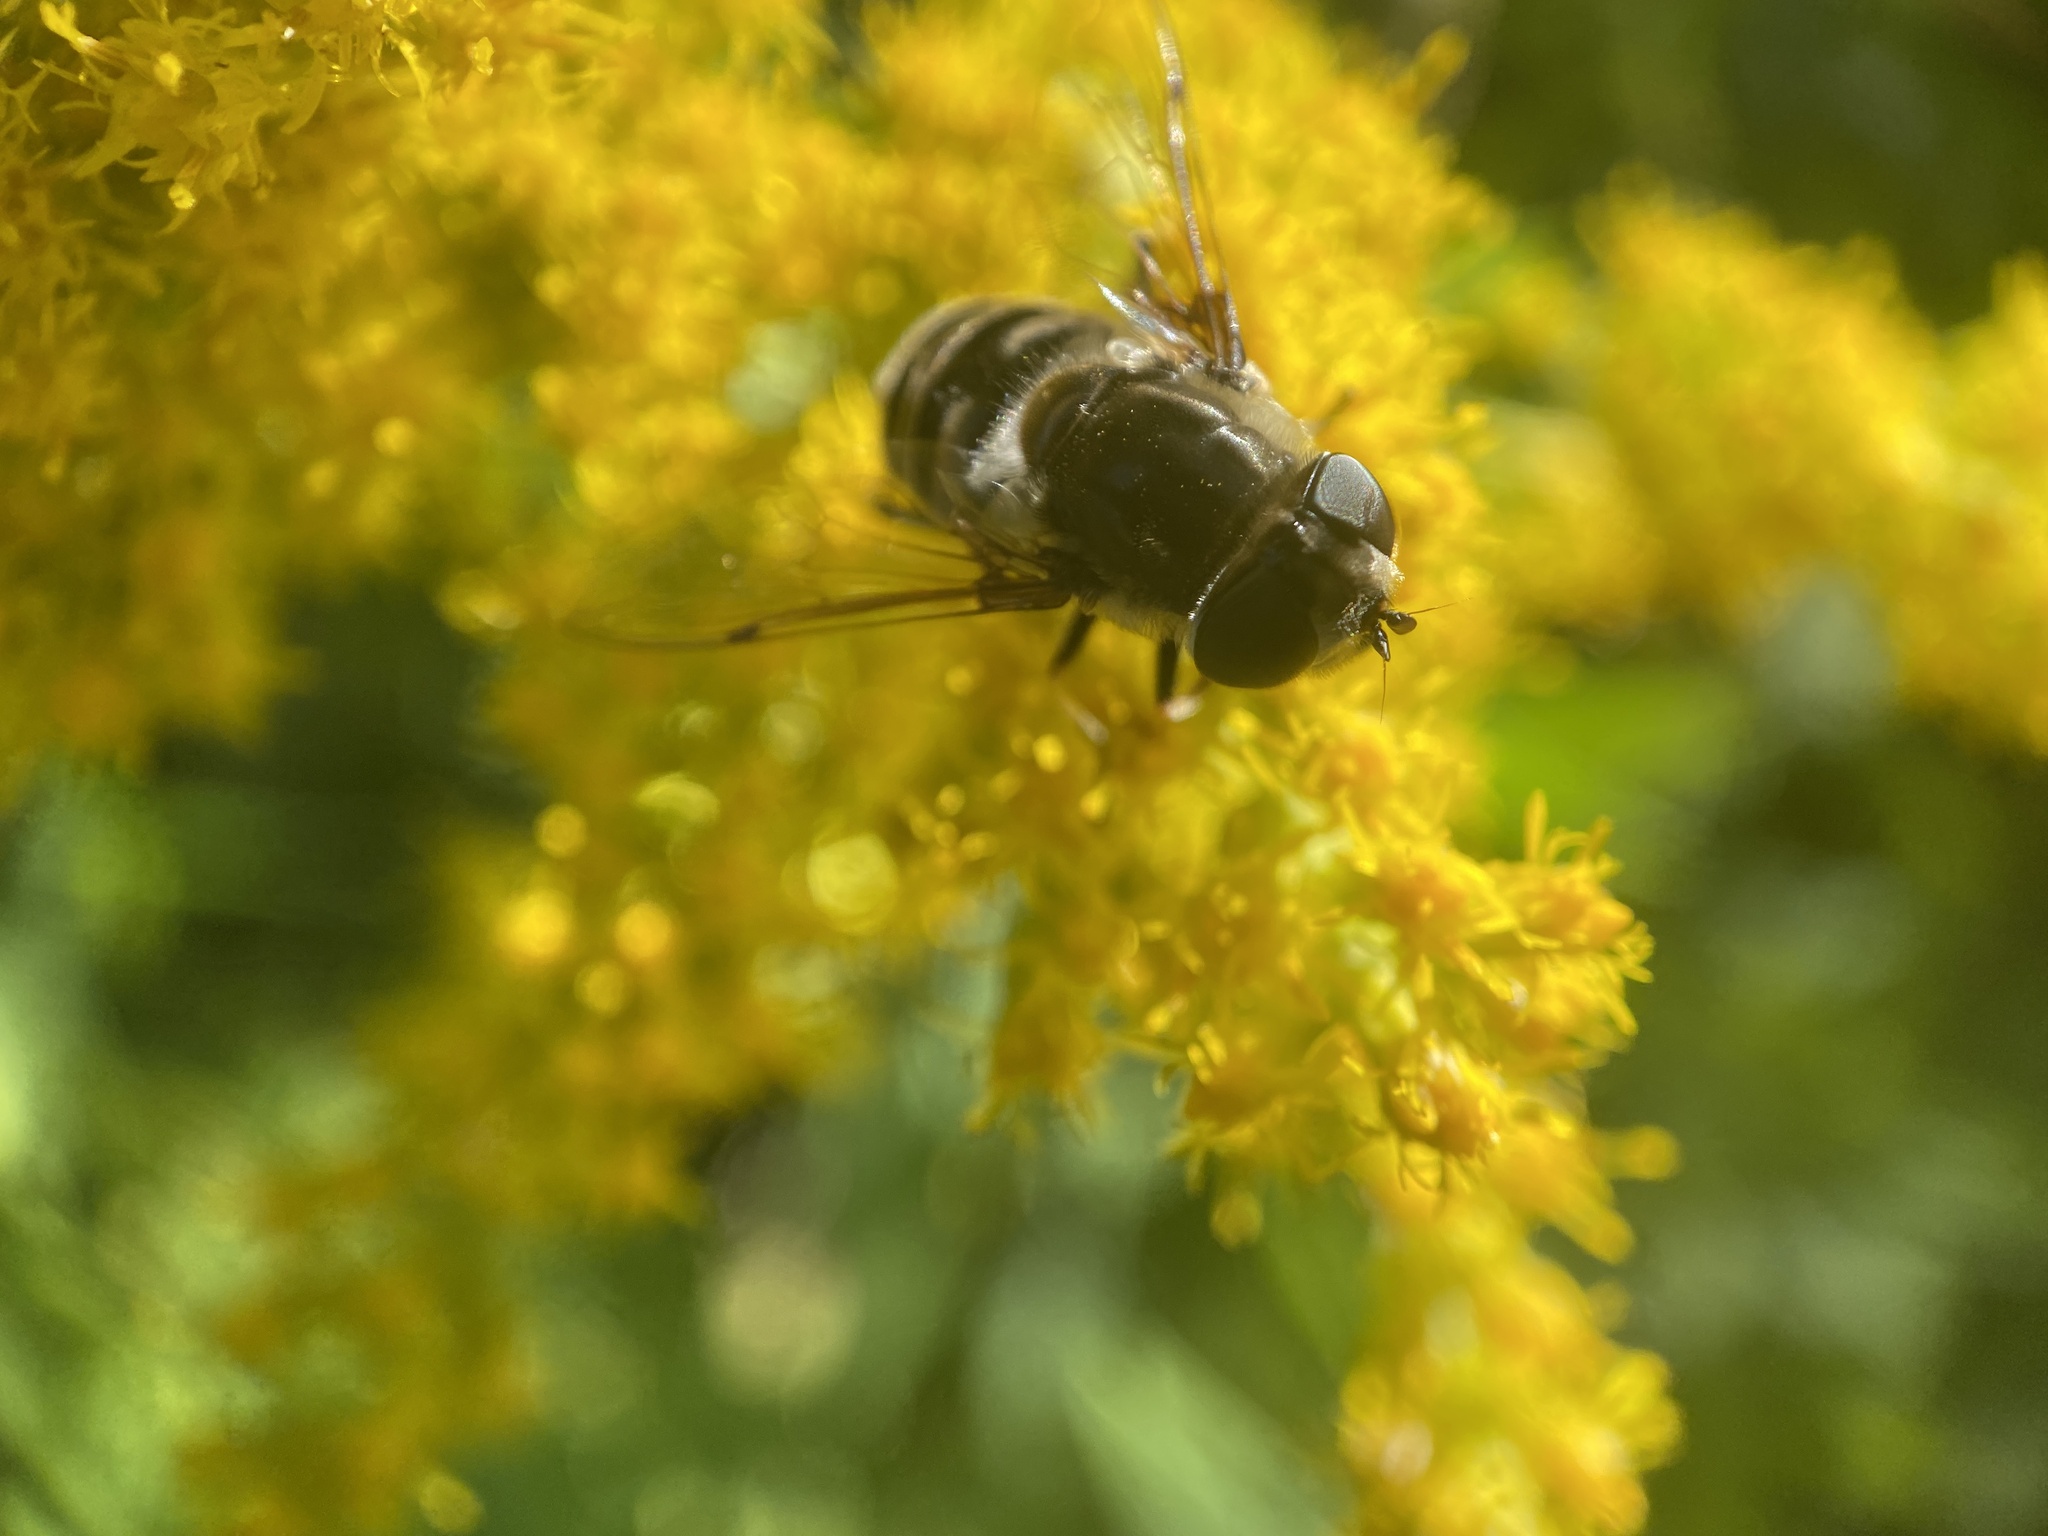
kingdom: Animalia
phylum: Arthropoda
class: Insecta
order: Diptera
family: Syrphidae
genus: Eristalis
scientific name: Eristalis dimidiata
